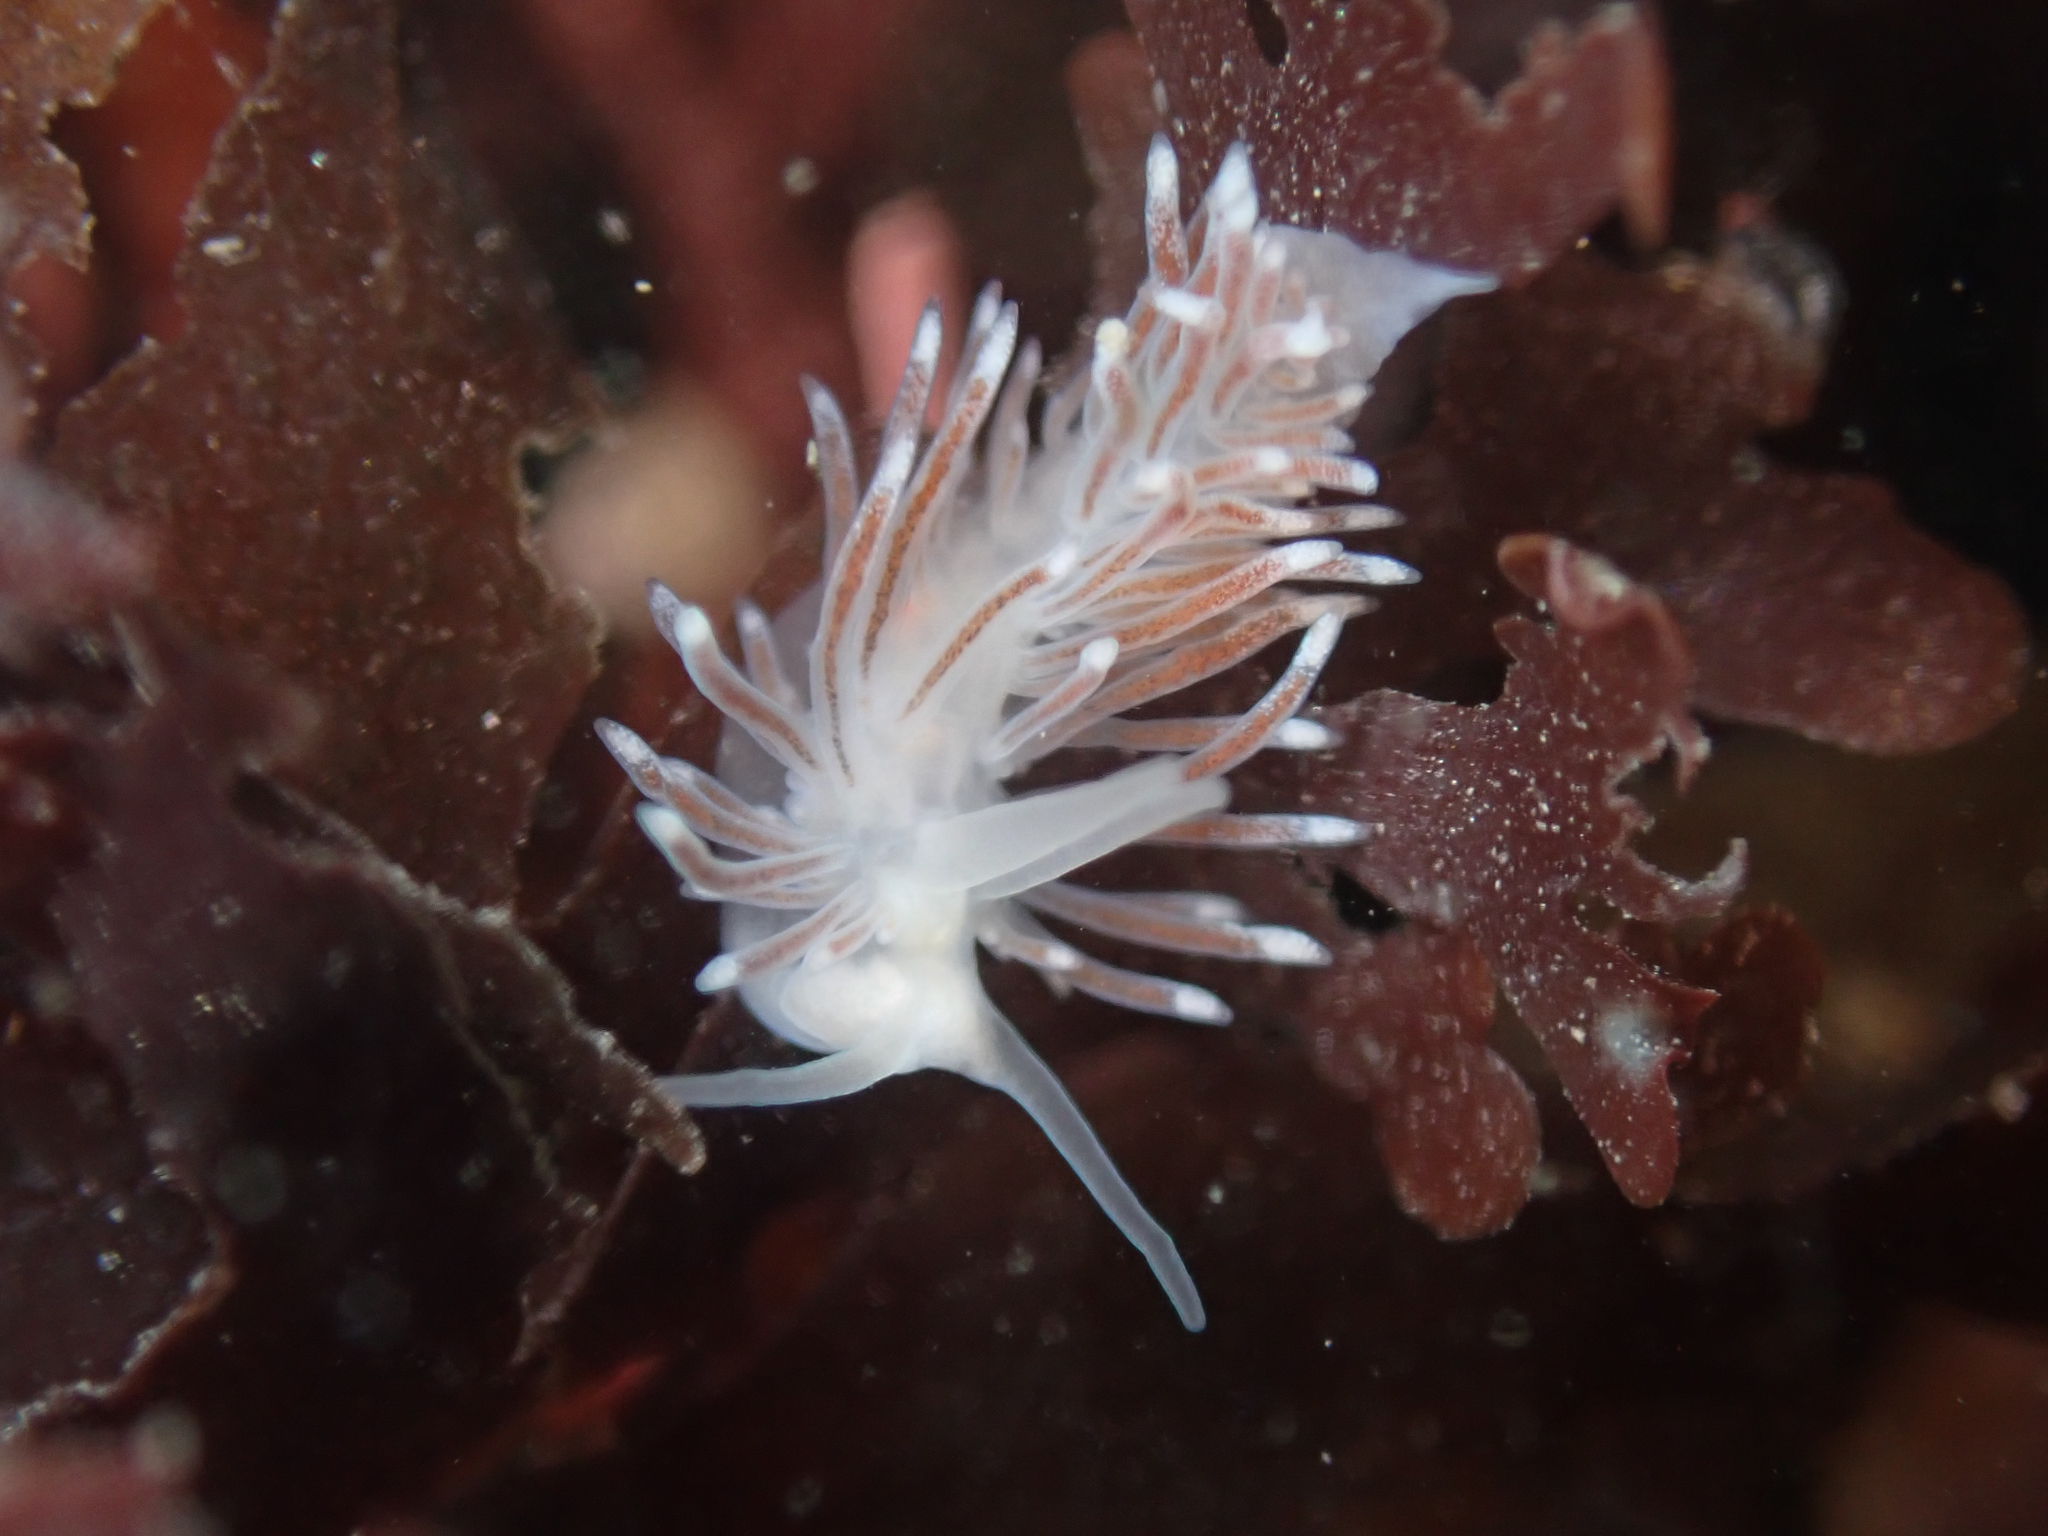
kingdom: Animalia
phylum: Mollusca
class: Gastropoda
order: Nudibranchia
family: Cuthonidae
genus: Cuthona
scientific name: Cuthona divae
